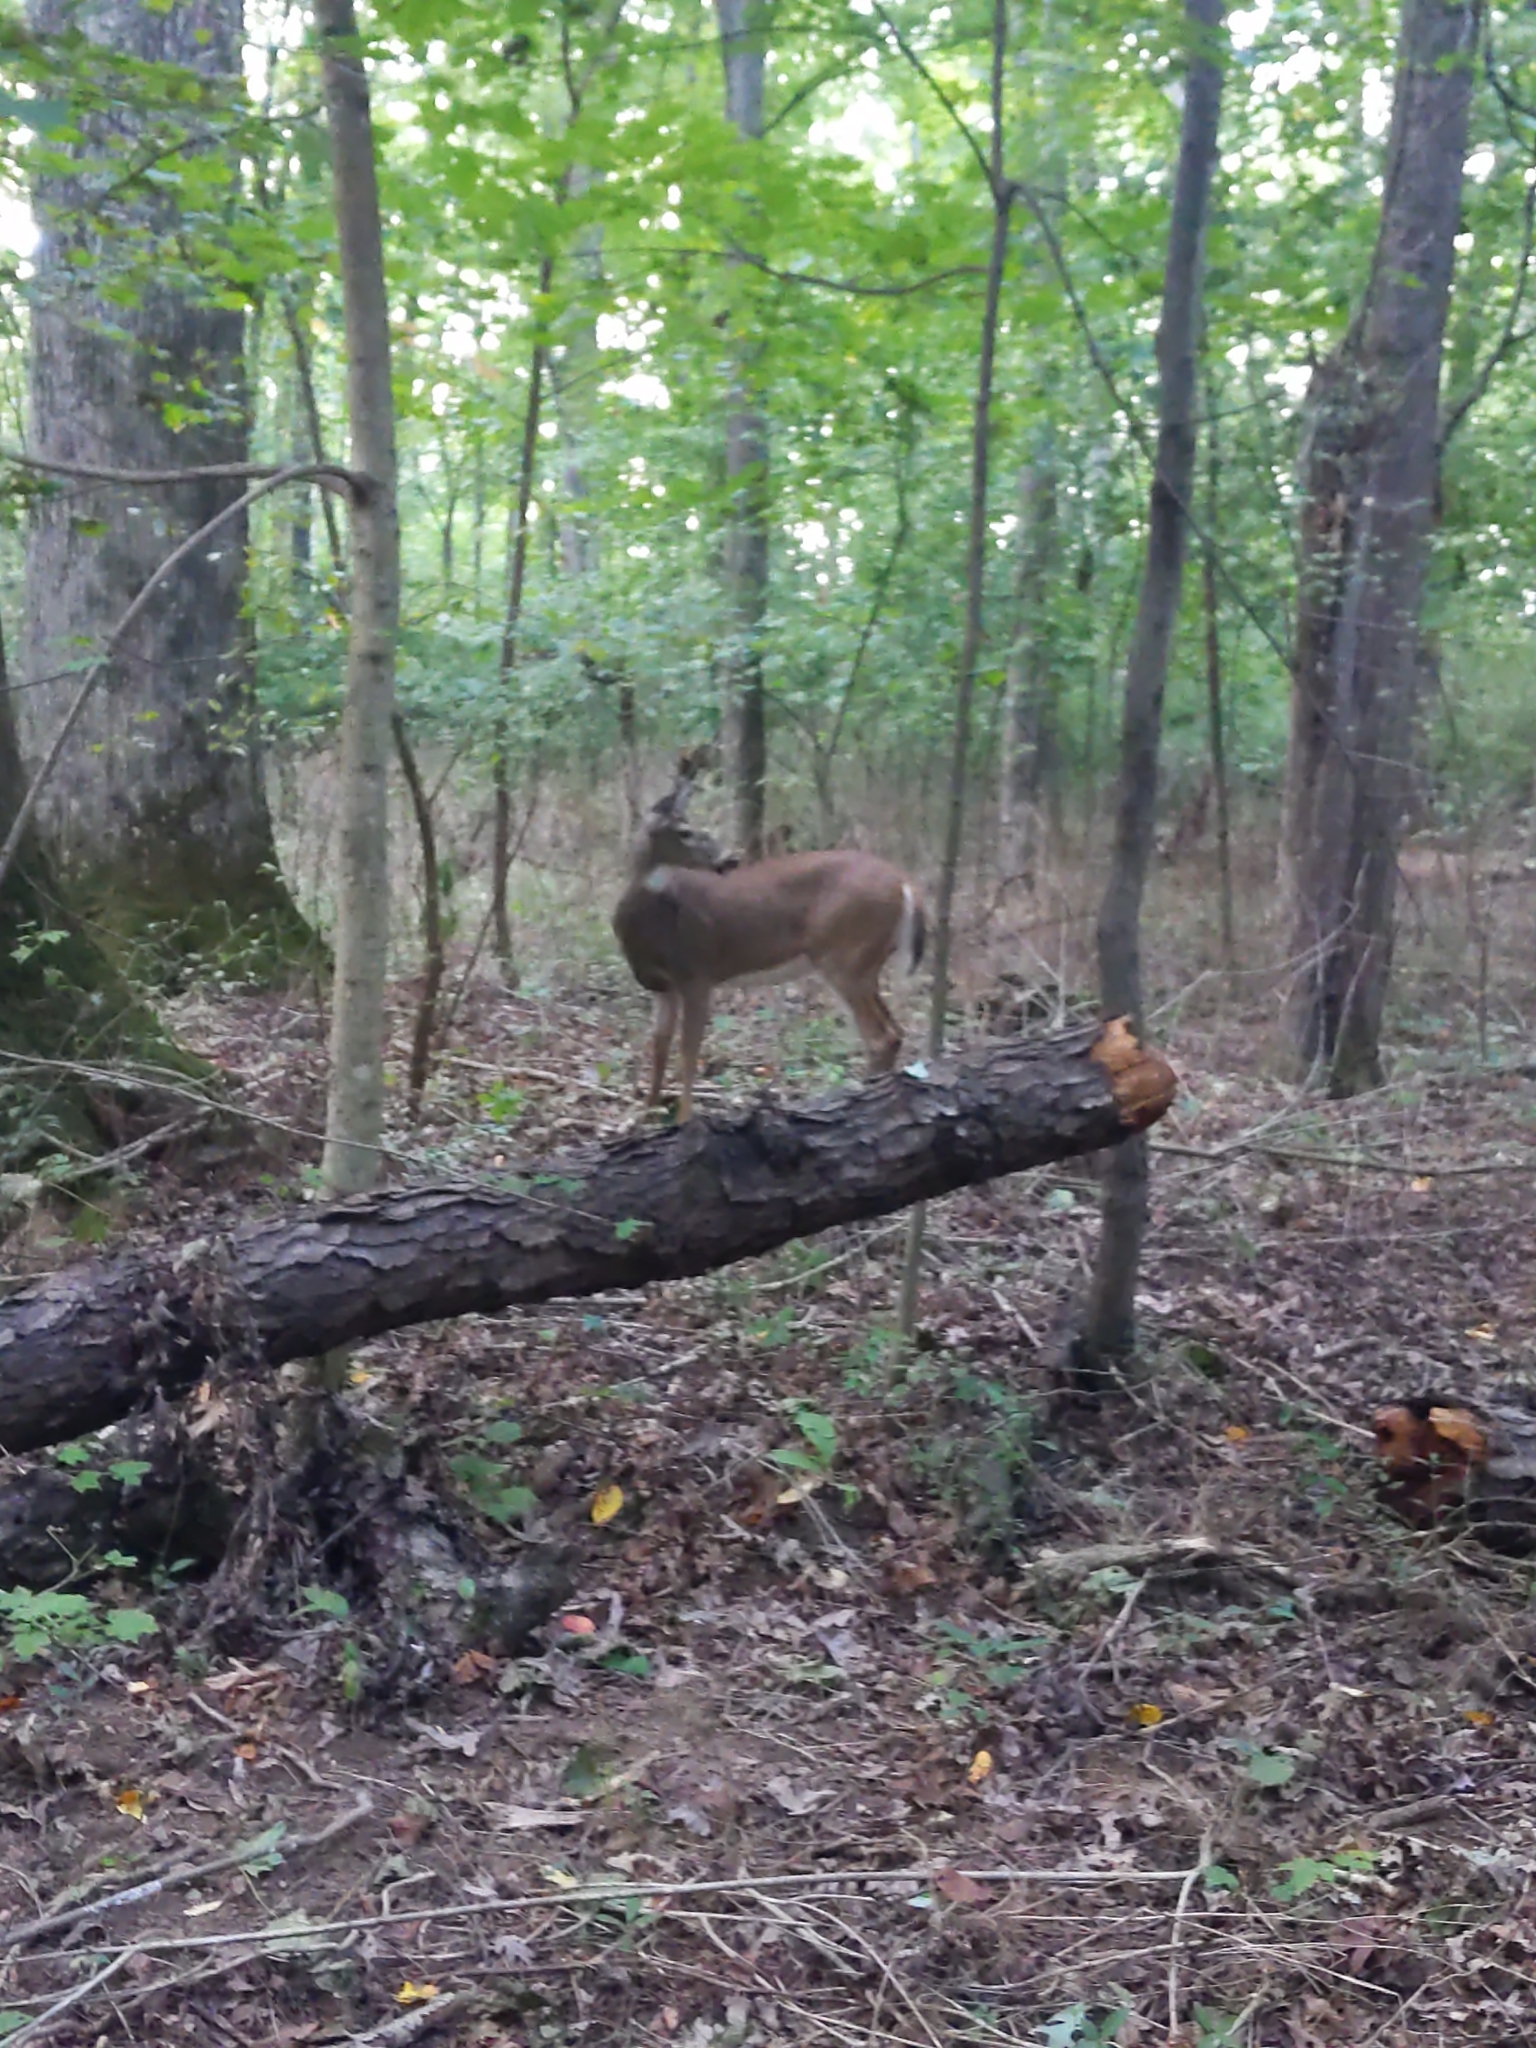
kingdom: Animalia
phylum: Chordata
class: Mammalia
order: Artiodactyla
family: Cervidae
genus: Odocoileus
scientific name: Odocoileus virginianus
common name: White-tailed deer
